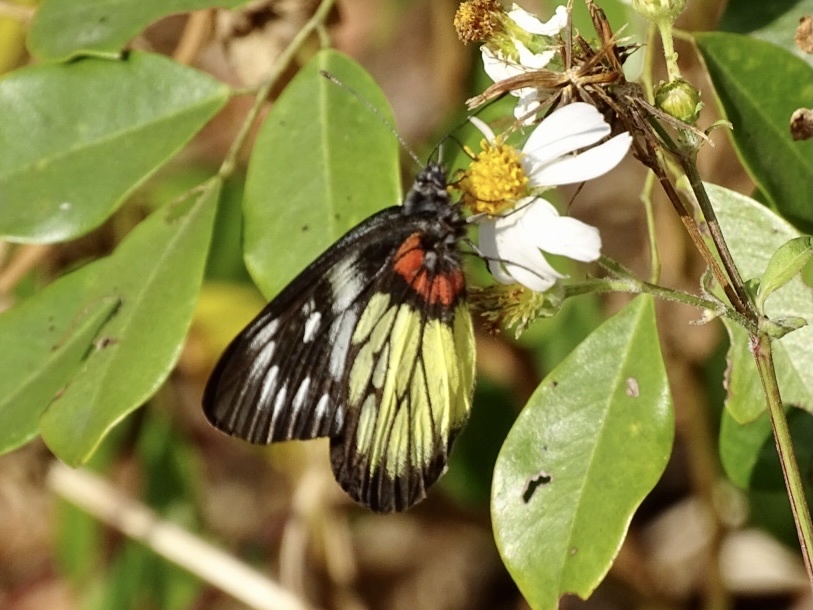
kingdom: Animalia
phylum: Arthropoda
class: Insecta
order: Lepidoptera
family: Pieridae
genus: Delias
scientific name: Delias pasithoe
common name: Red-base jezebel
